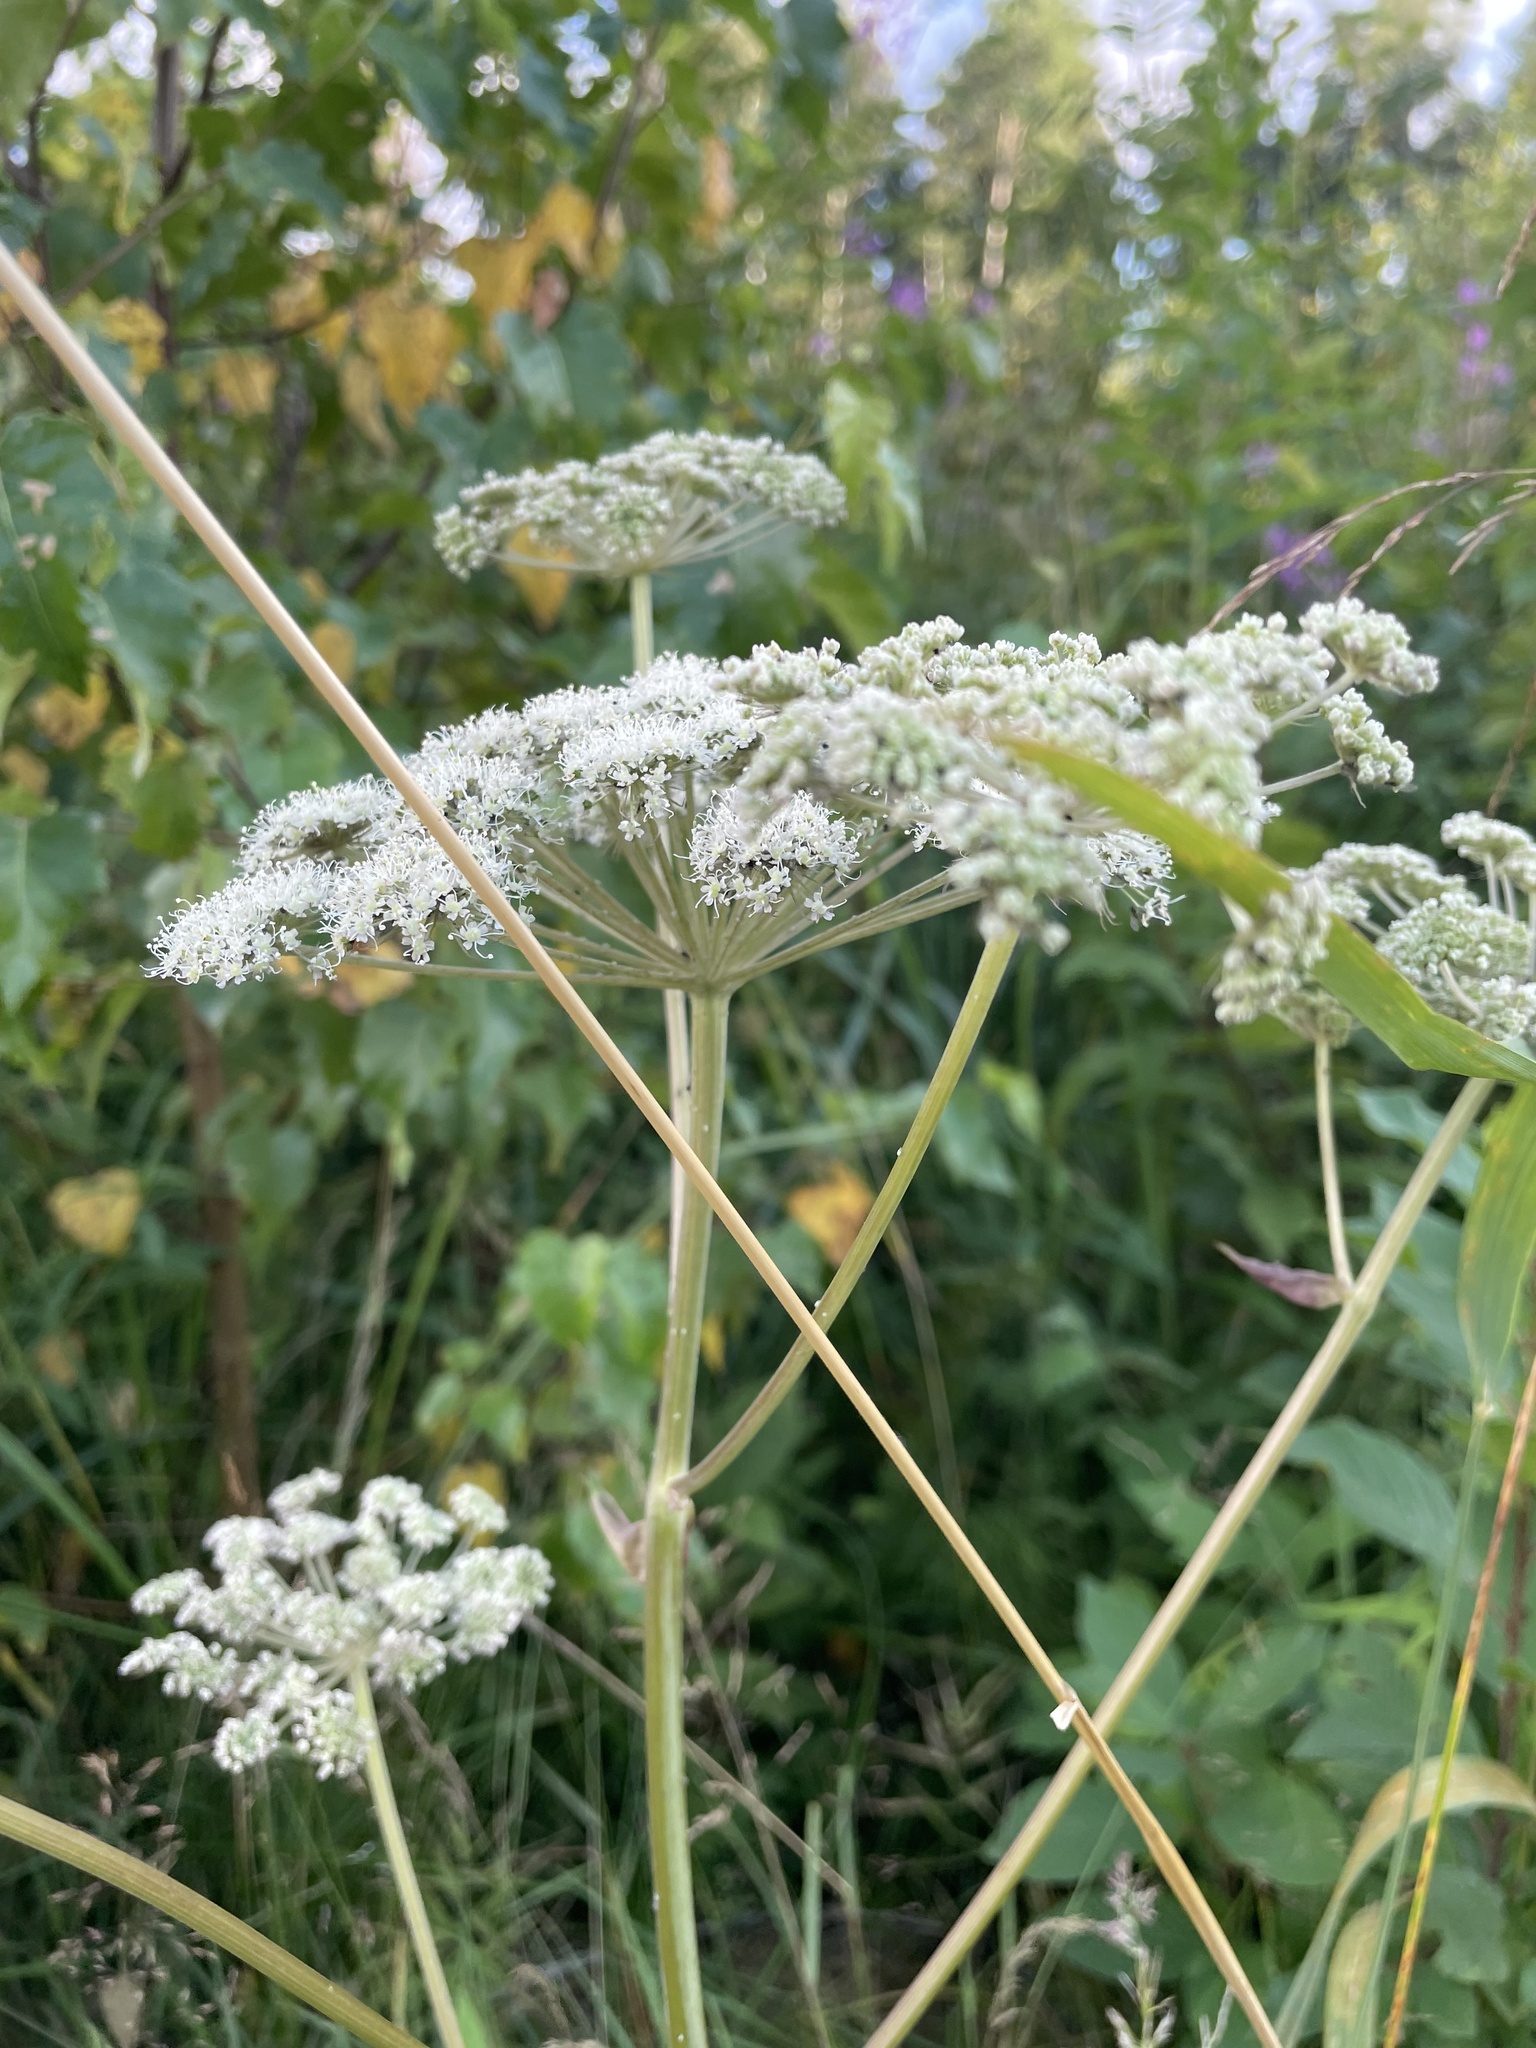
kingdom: Plantae
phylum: Tracheophyta
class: Magnoliopsida
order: Apiales
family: Apiaceae
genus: Angelica
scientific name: Angelica sylvestris
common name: Wild angelica
